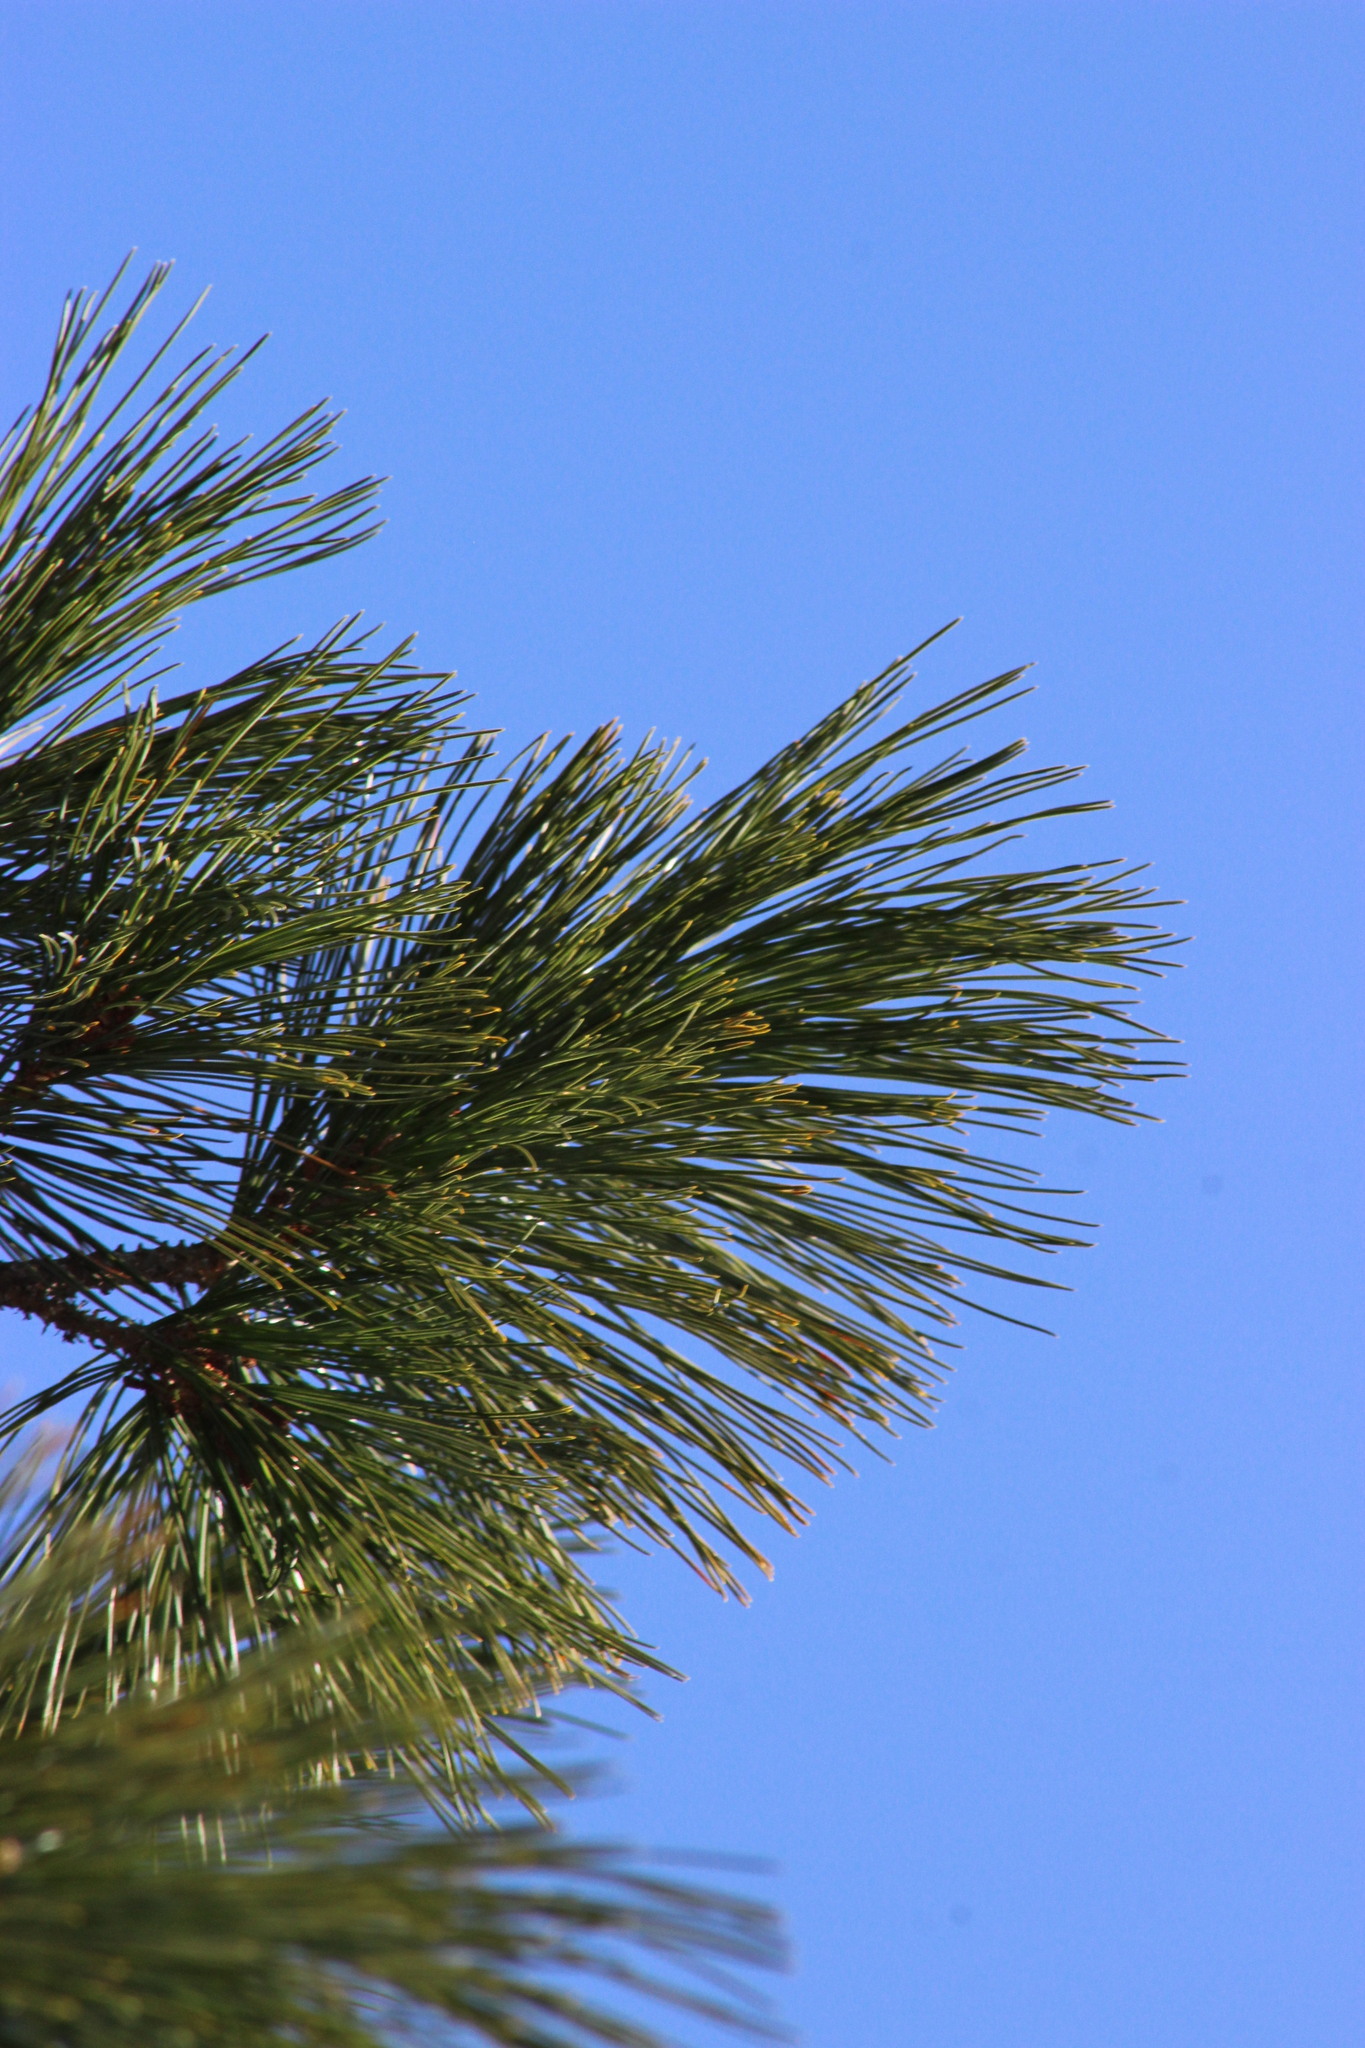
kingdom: Plantae
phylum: Tracheophyta
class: Pinopsida
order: Pinales
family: Pinaceae
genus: Pinus
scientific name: Pinus sibirica
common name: Siberian pine
